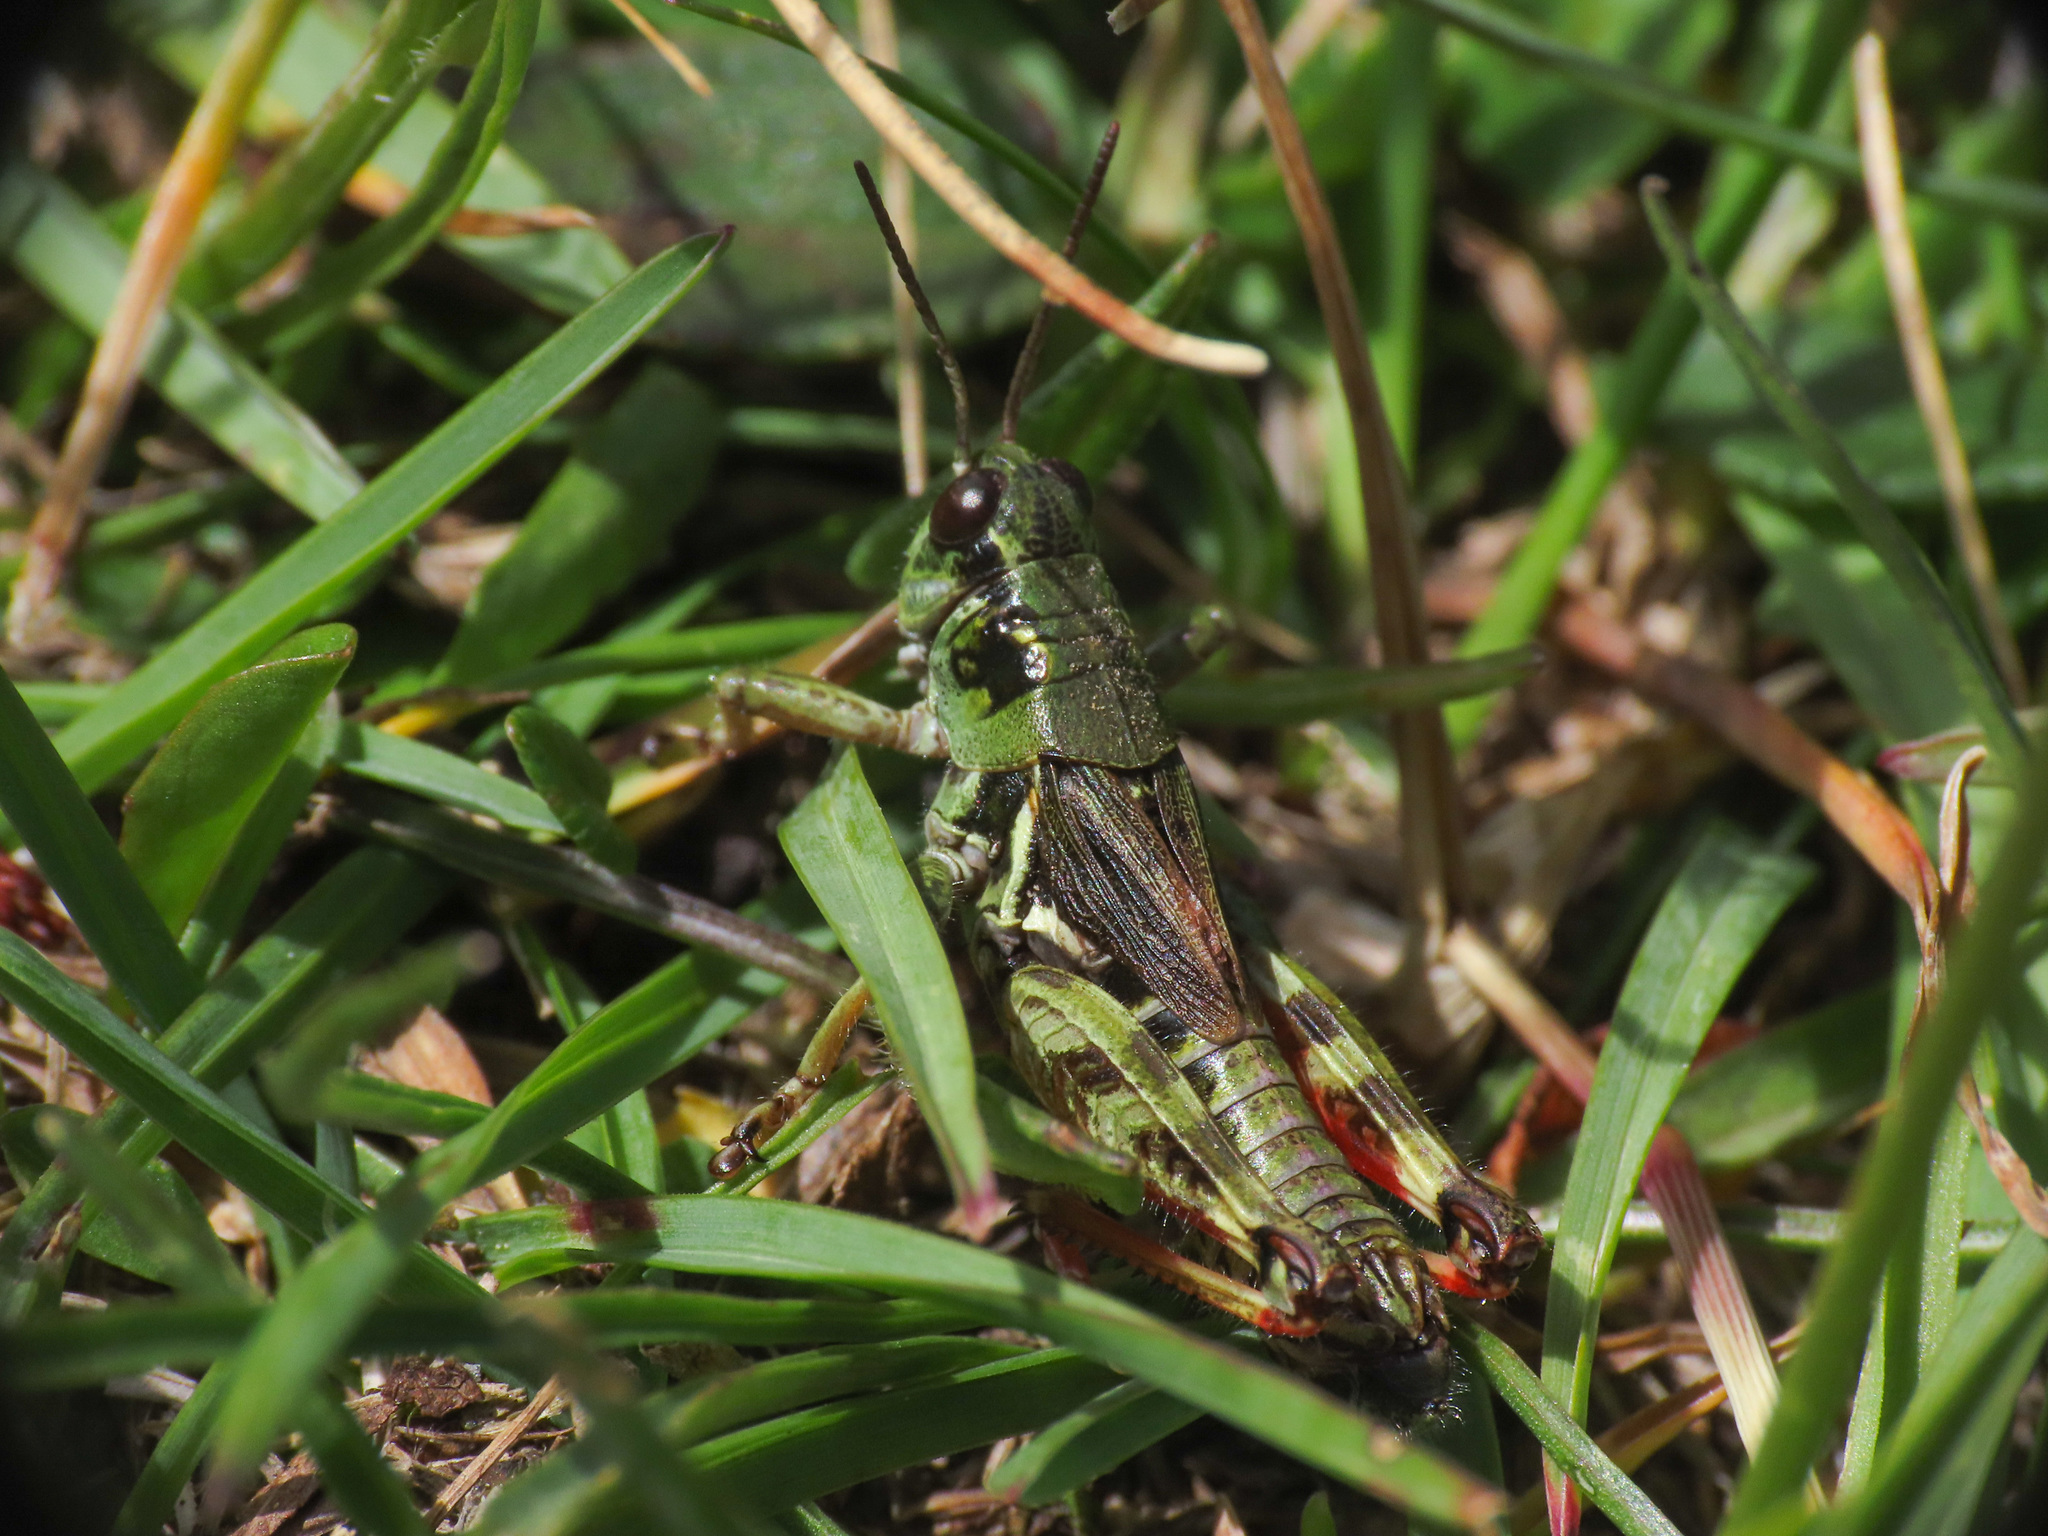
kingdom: Animalia
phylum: Arthropoda
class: Insecta
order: Orthoptera
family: Acrididae
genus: Bohemanella
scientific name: Bohemanella frigida
